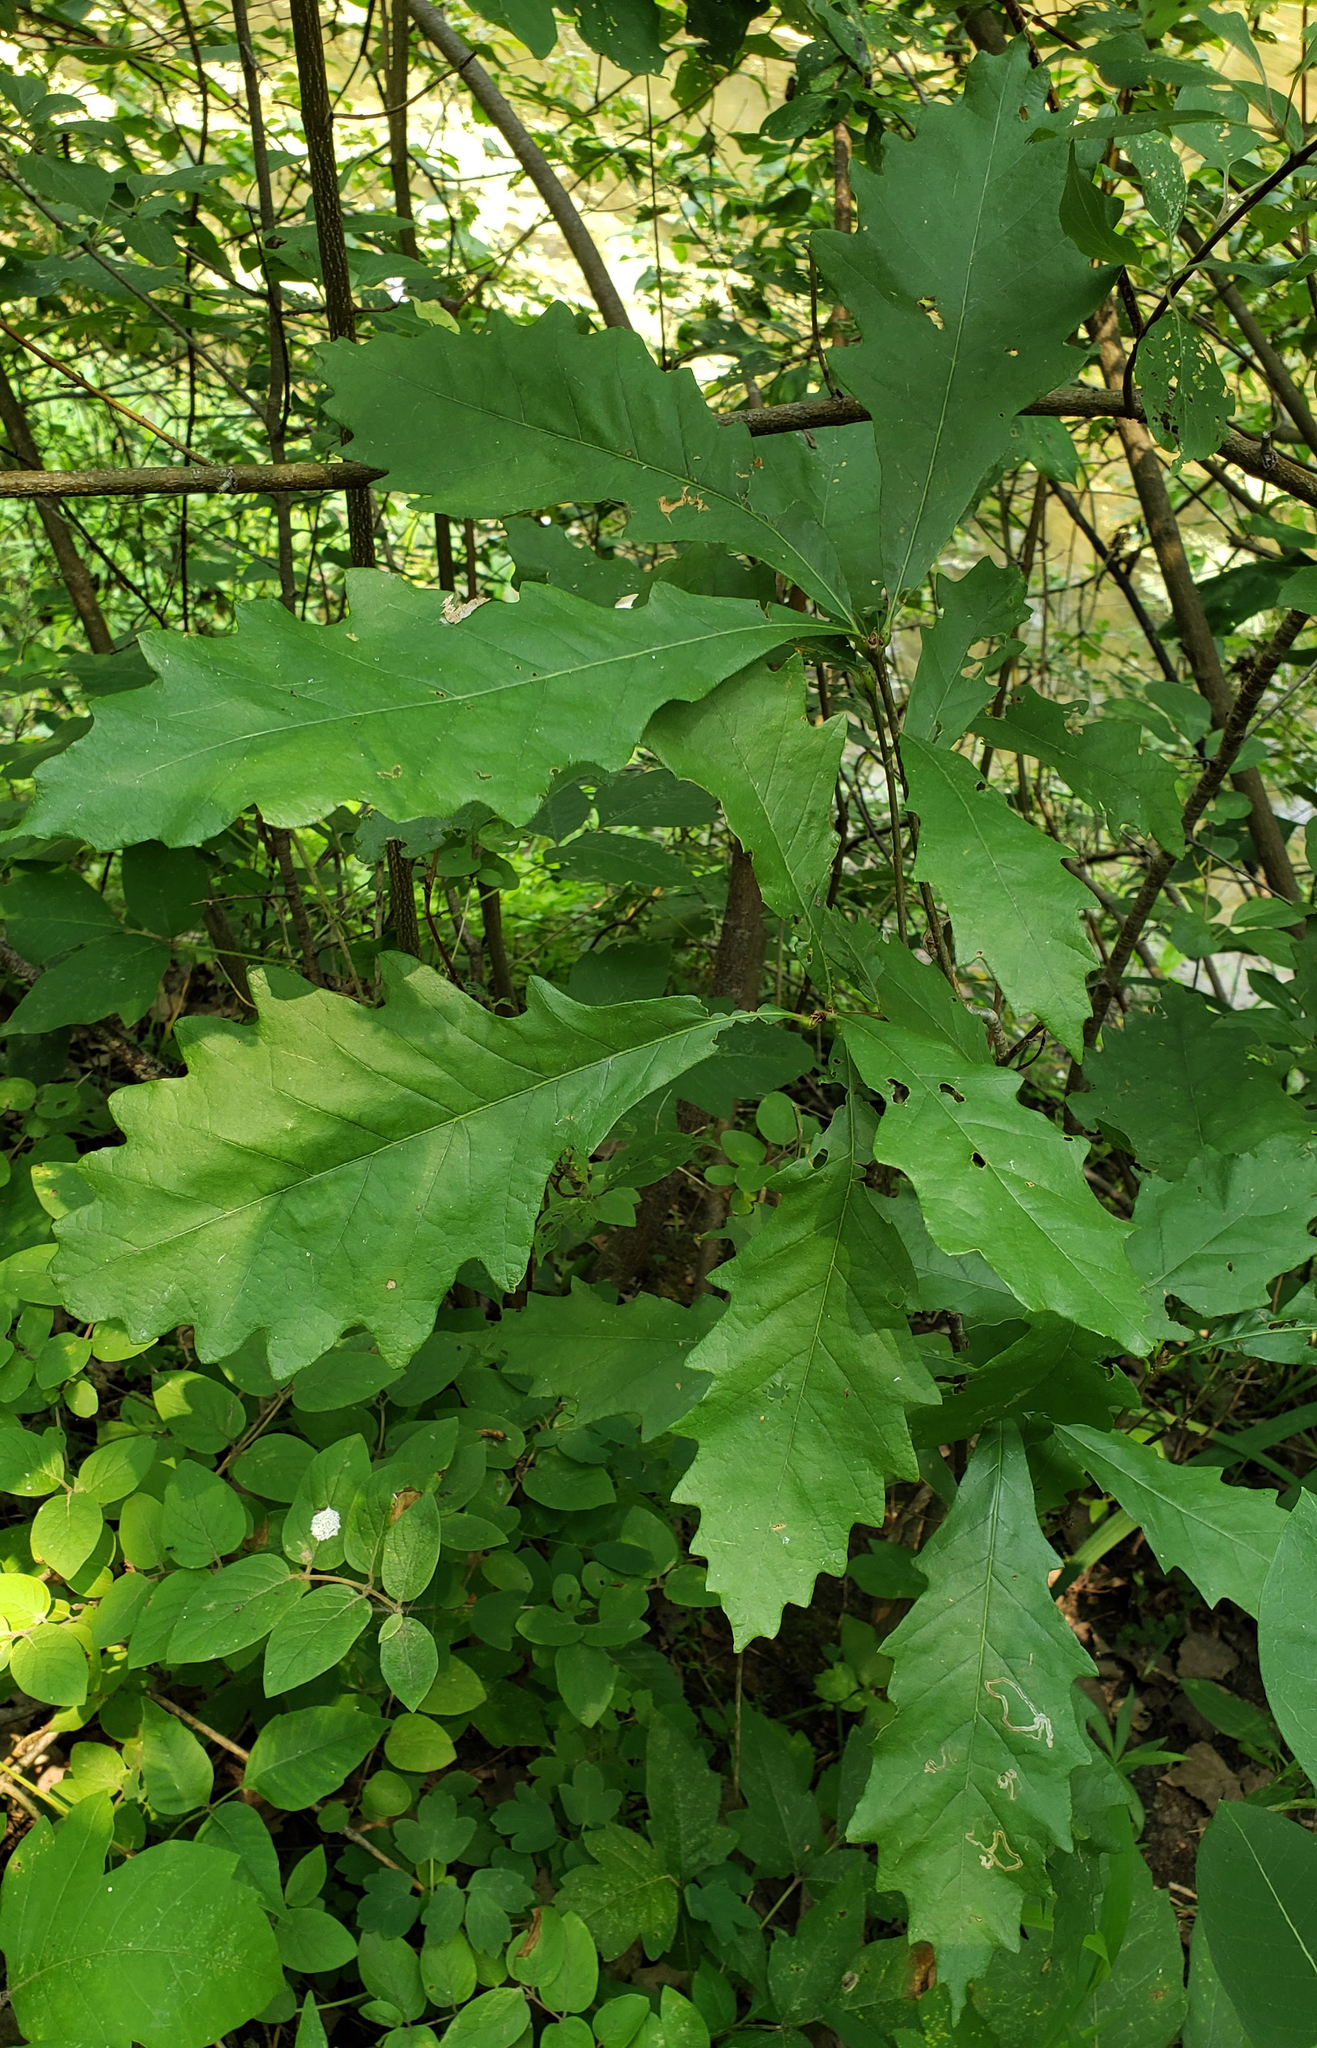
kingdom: Plantae
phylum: Tracheophyta
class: Magnoliopsida
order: Fagales
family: Fagaceae
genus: Quercus
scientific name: Quercus bicolor
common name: Swamp white oak
